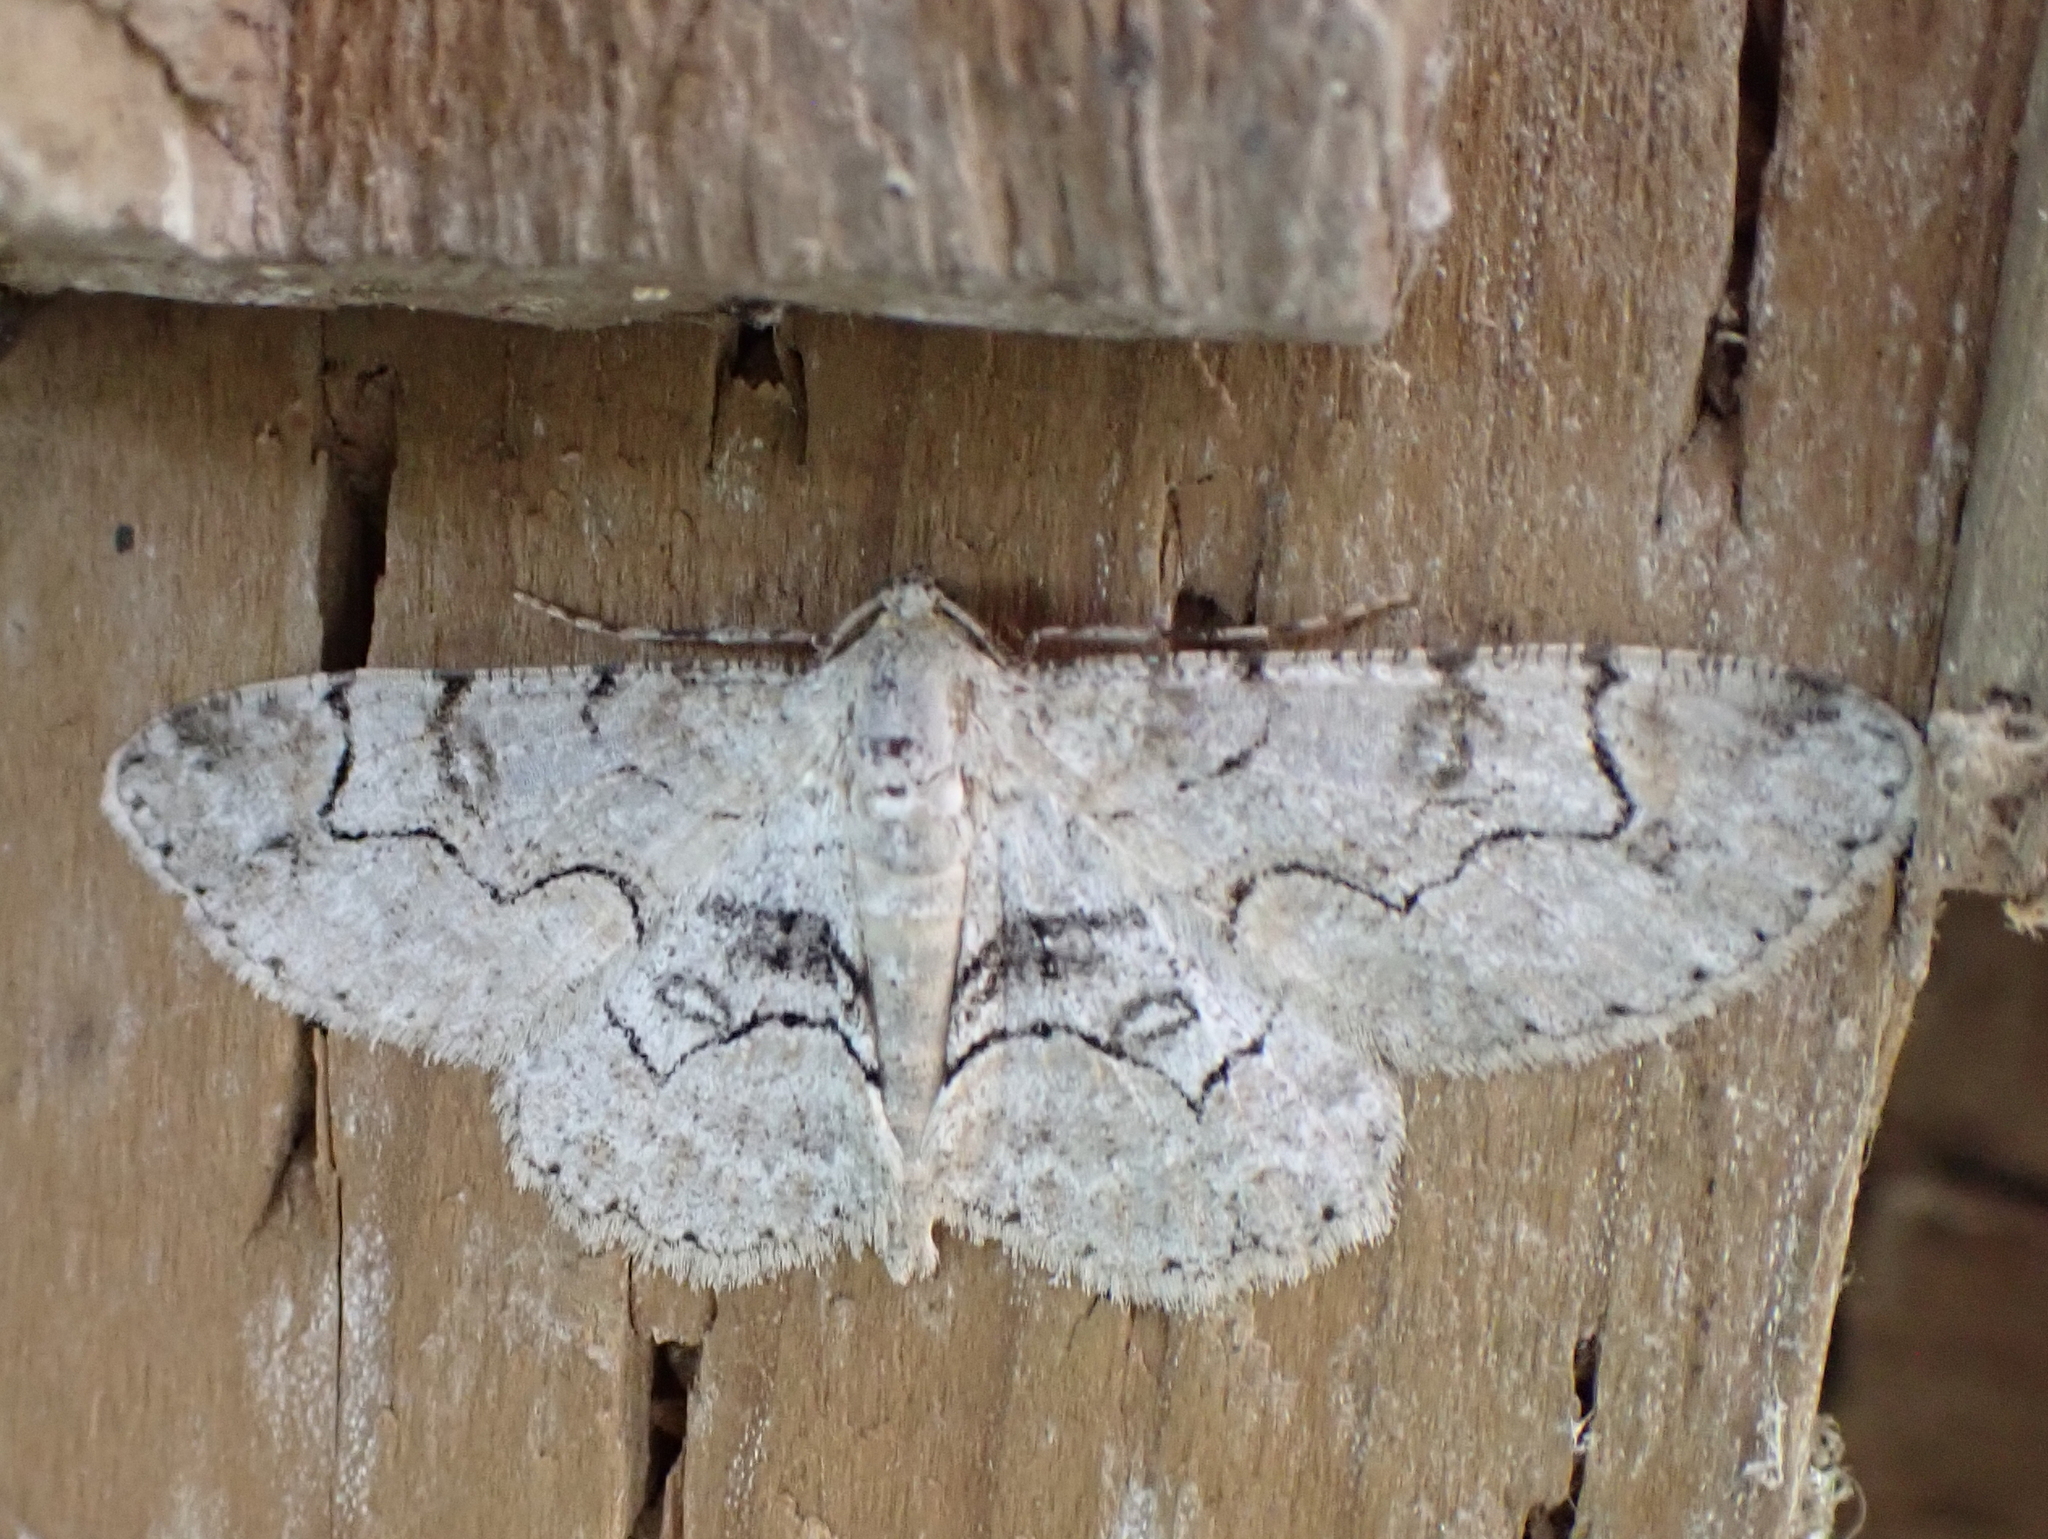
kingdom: Animalia
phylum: Arthropoda
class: Insecta
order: Lepidoptera
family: Geometridae
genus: Iridopsis
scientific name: Iridopsis larvaria
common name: Bent-line gray
